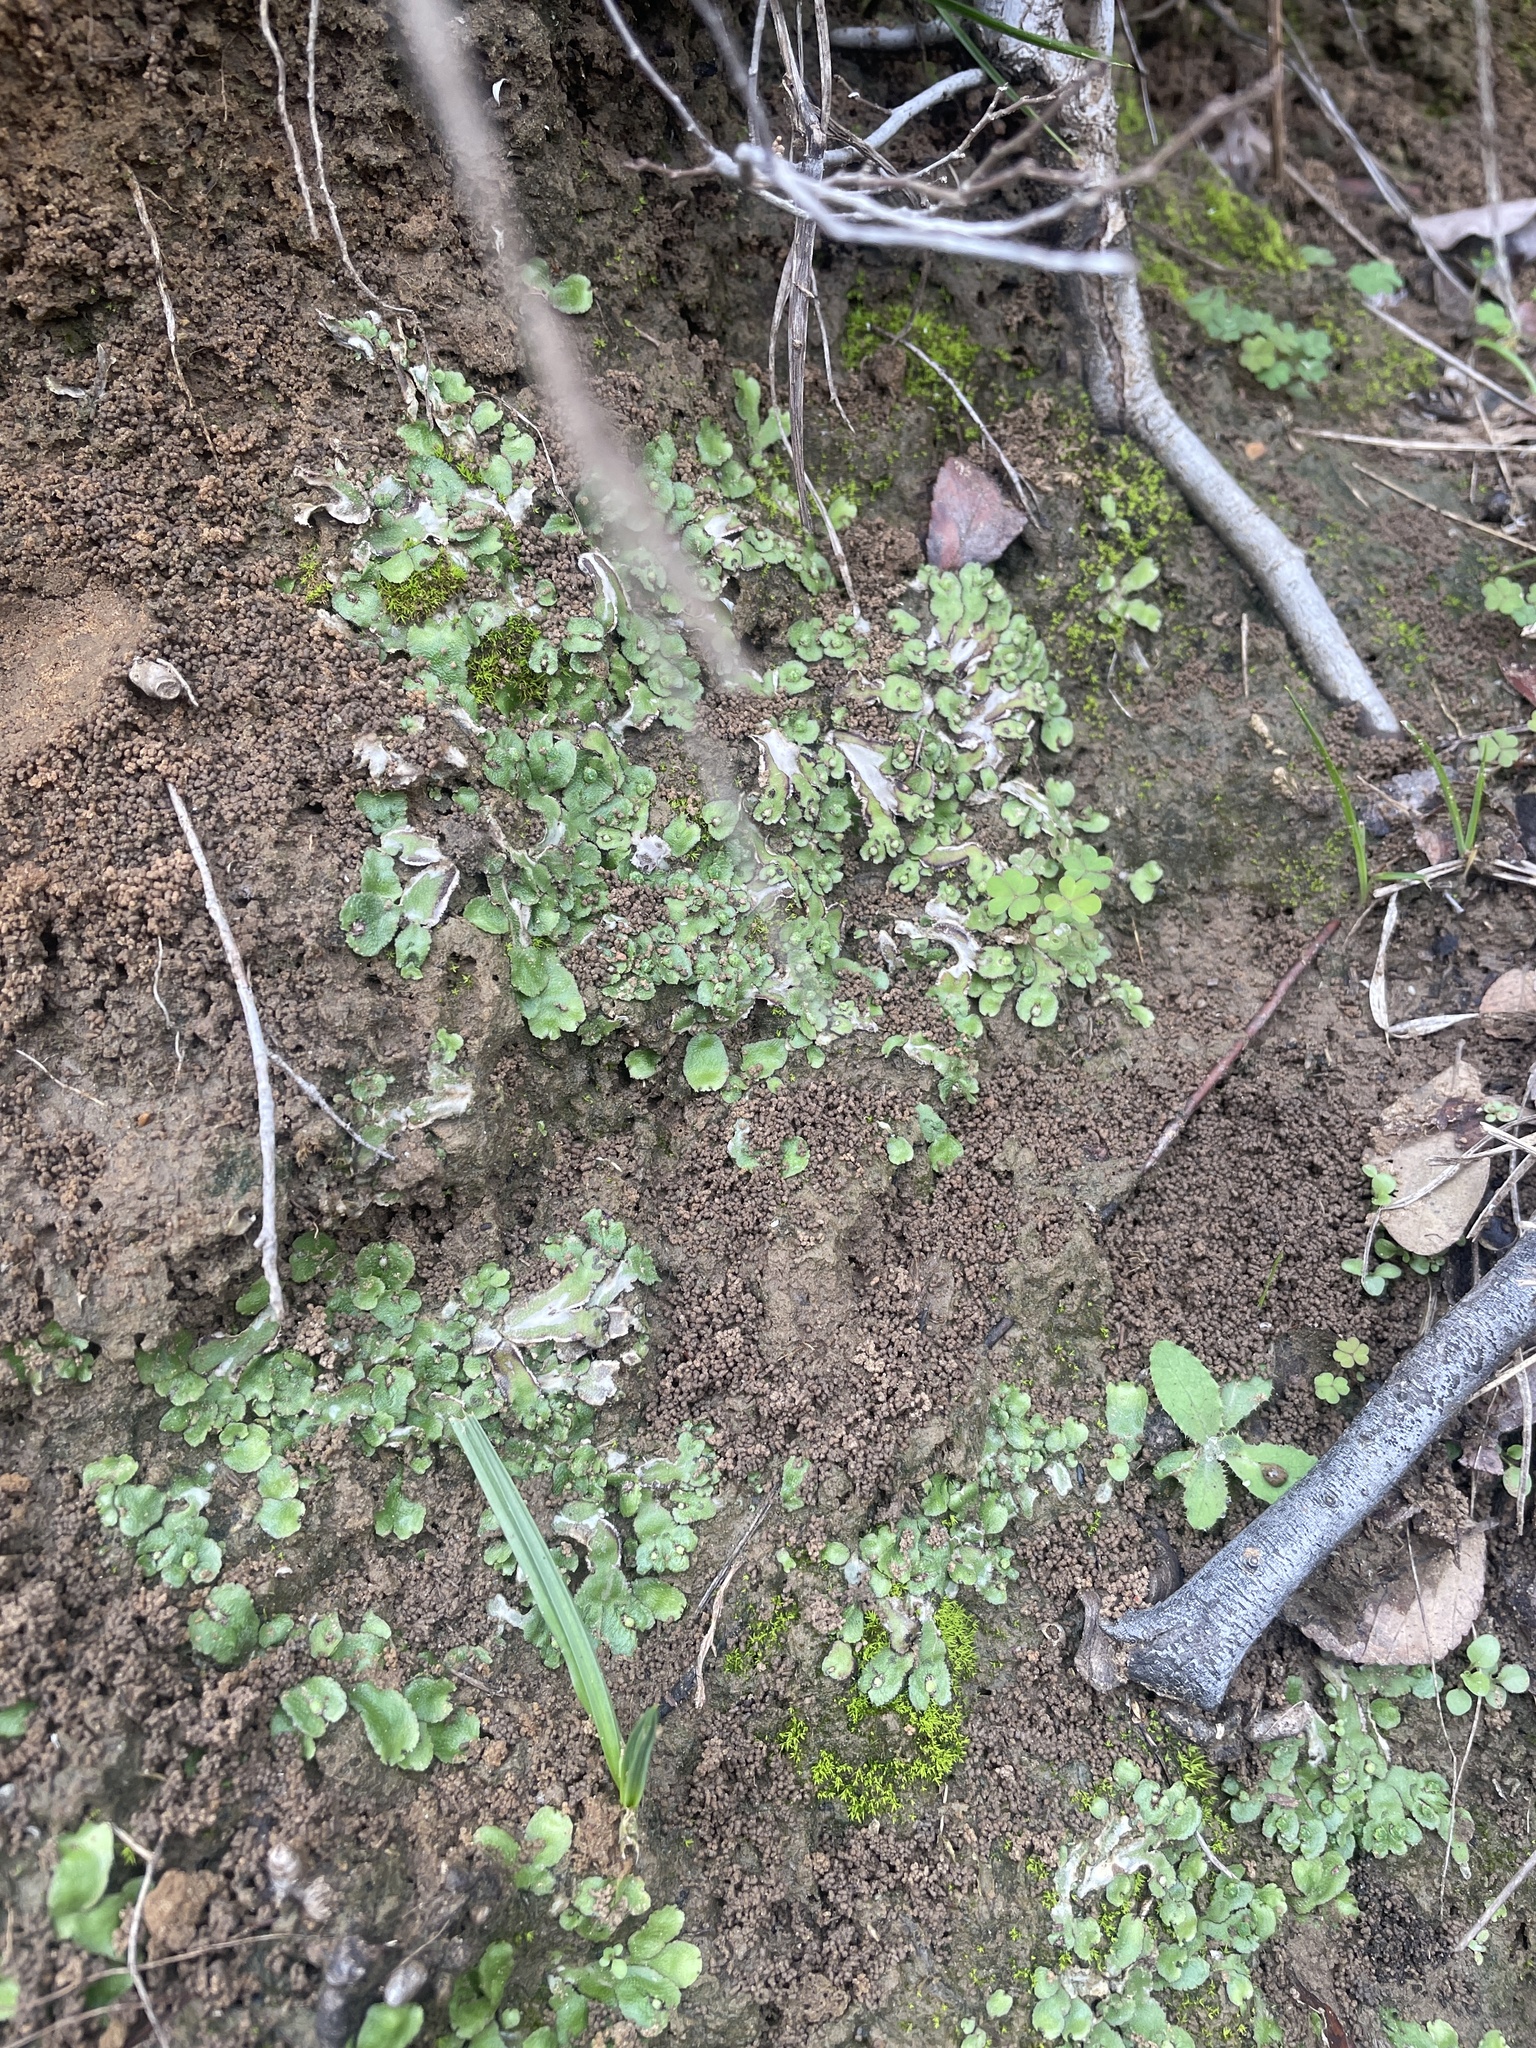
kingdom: Plantae
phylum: Marchantiophyta
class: Marchantiopsida
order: Marchantiales
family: Aytoniaceae
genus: Reboulia
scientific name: Reboulia hemisphaerica
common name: Purple-margined liverwort
